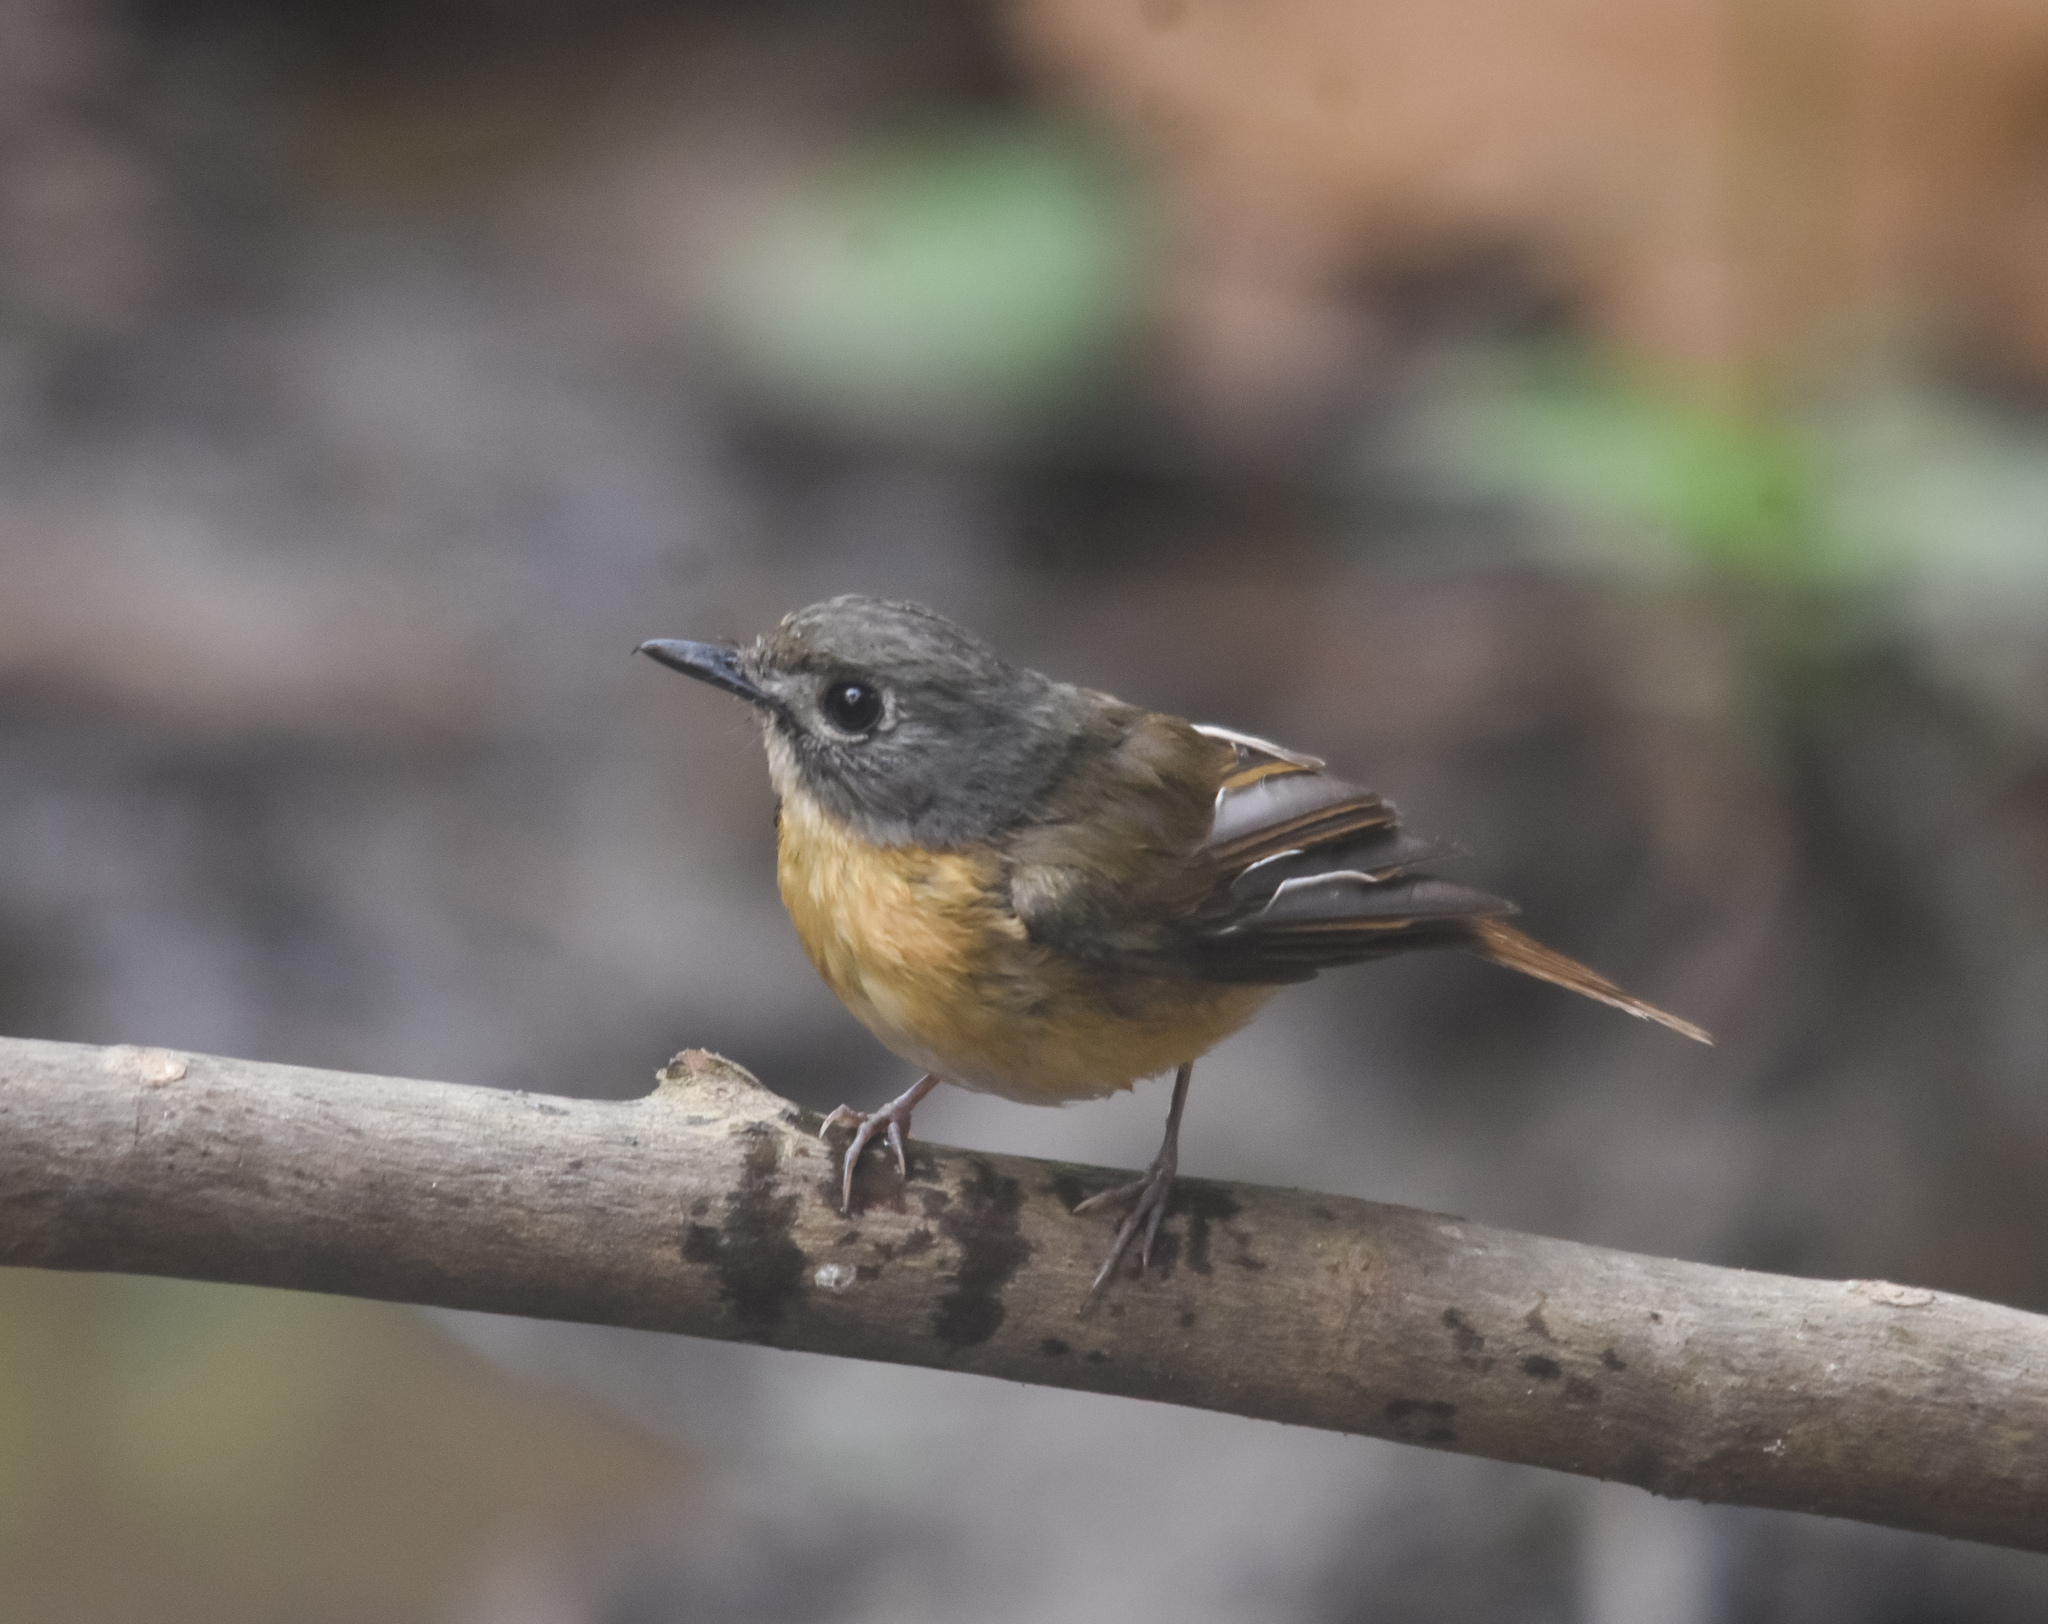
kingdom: Animalia
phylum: Chordata
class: Aves
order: Passeriformes
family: Muscicapidae
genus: Cyornis
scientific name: Cyornis poliogenys
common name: Pale-chinned blue flycatcher
